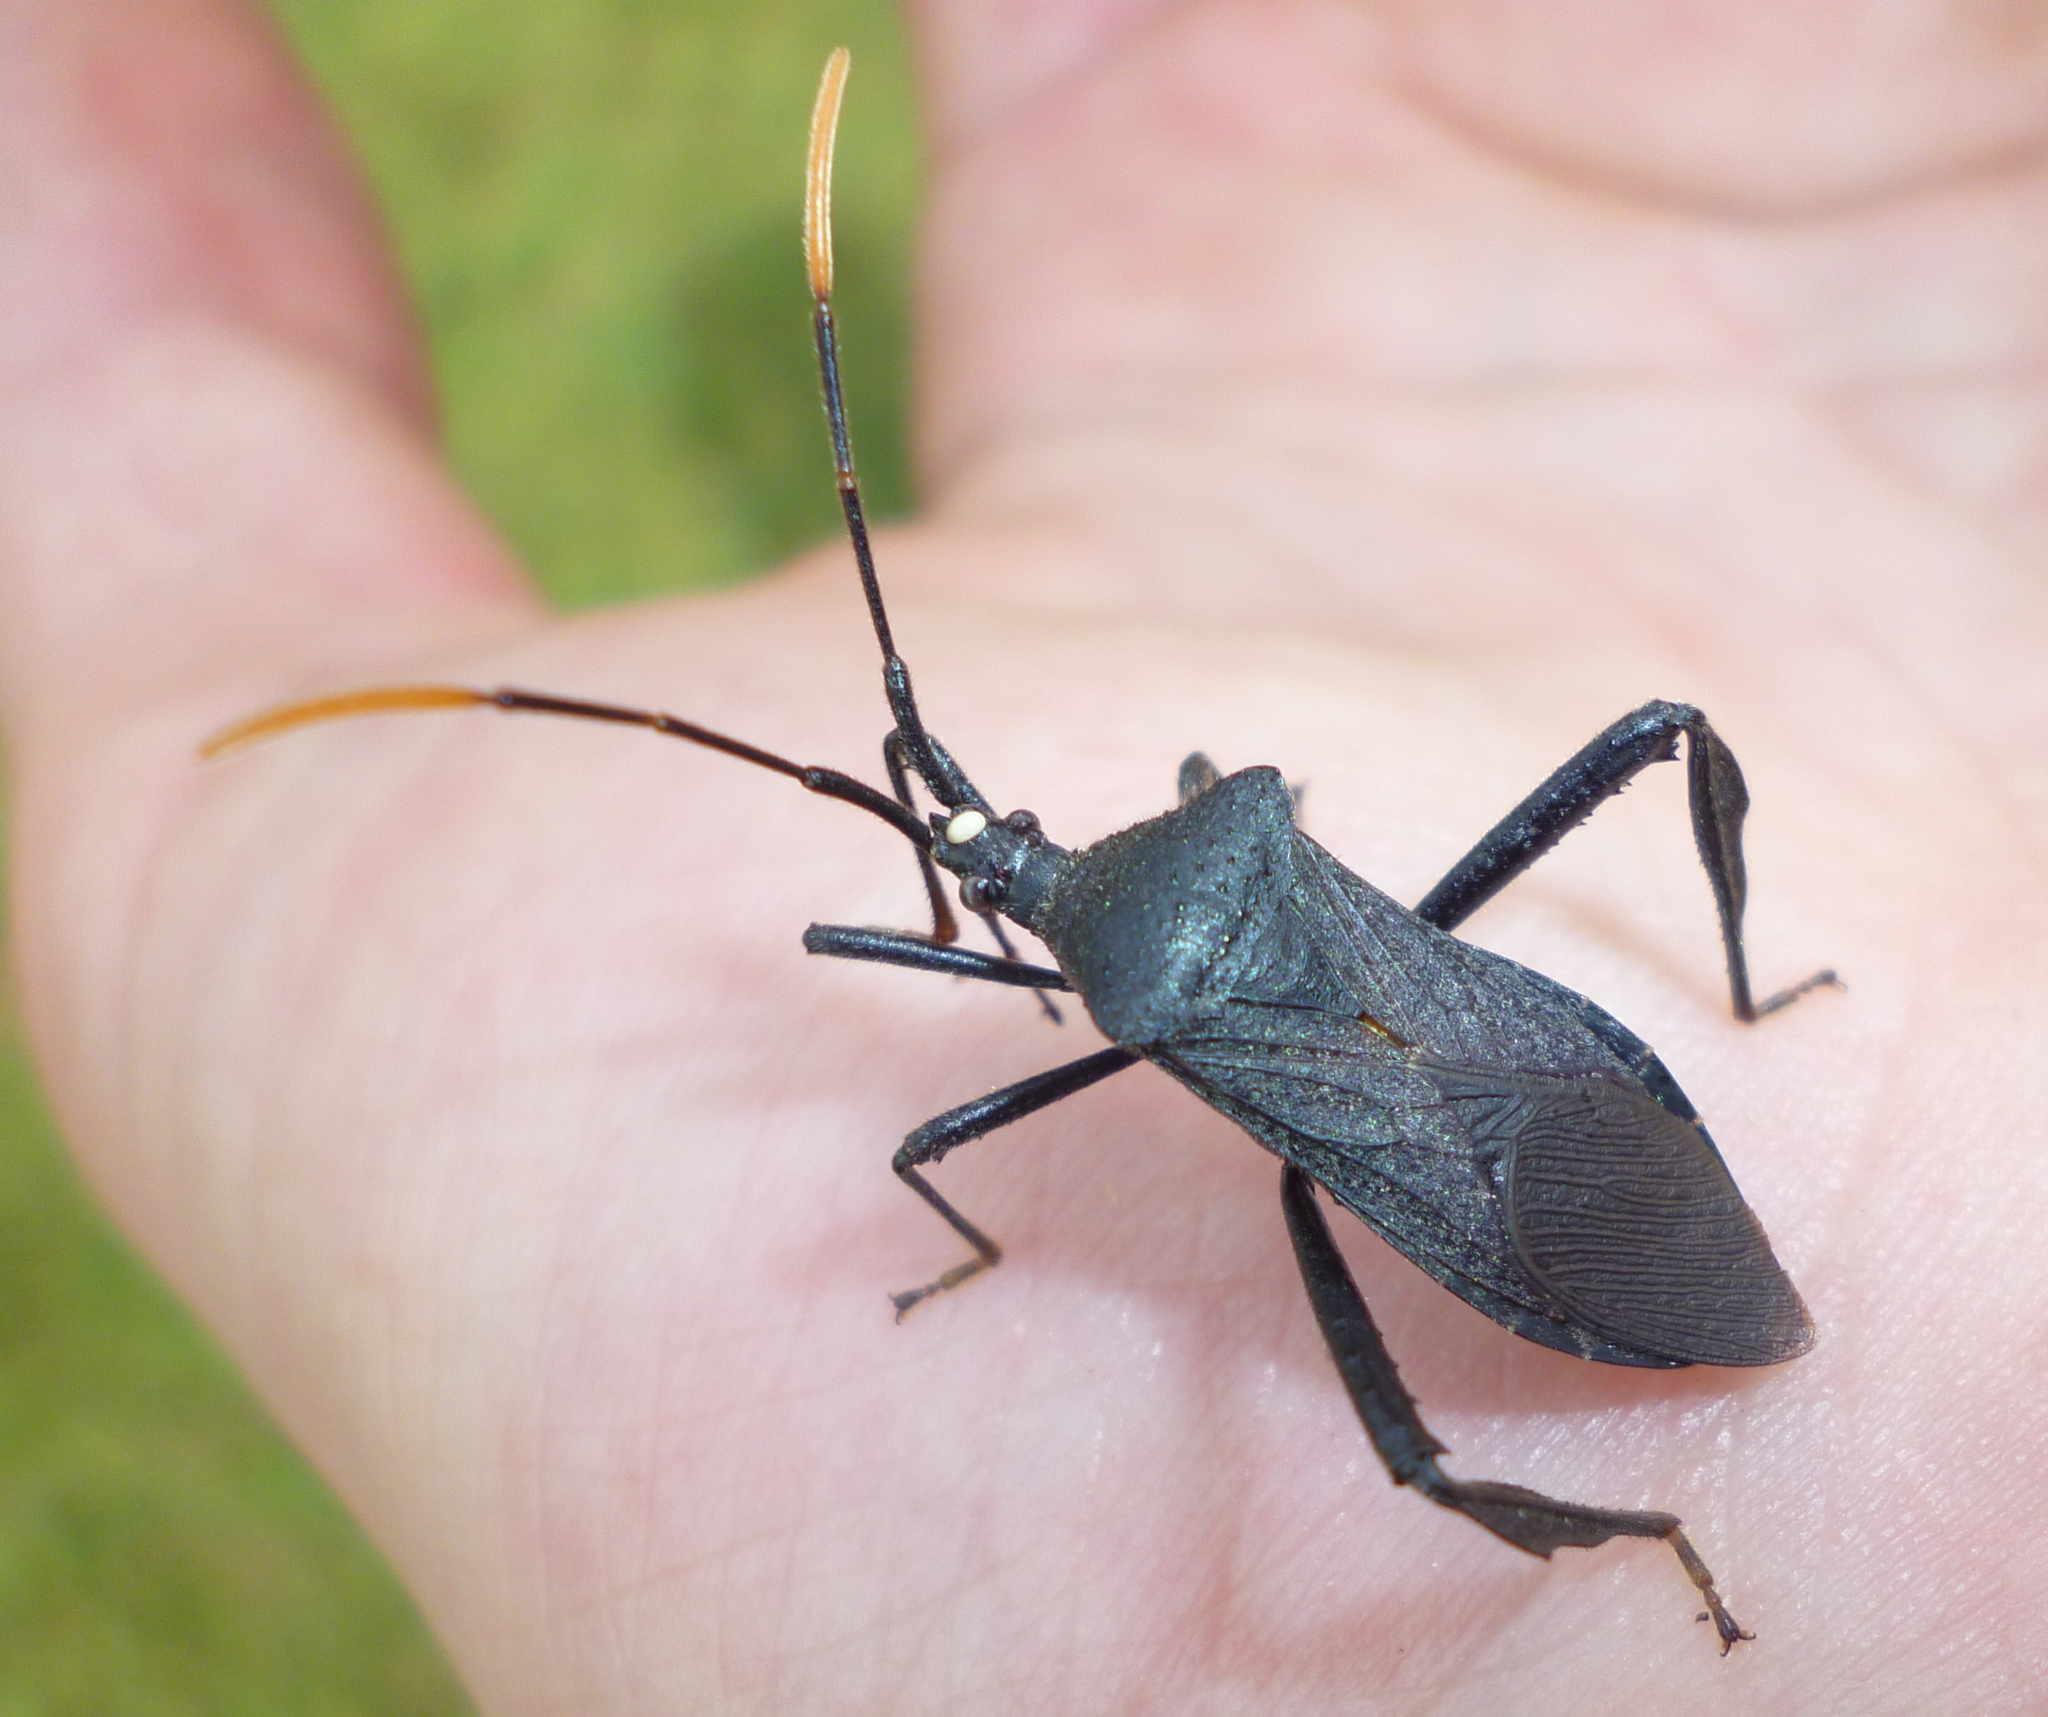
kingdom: Animalia
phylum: Arthropoda
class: Insecta
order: Hemiptera
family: Coreidae
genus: Acanthocephala
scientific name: Acanthocephala terminalis
